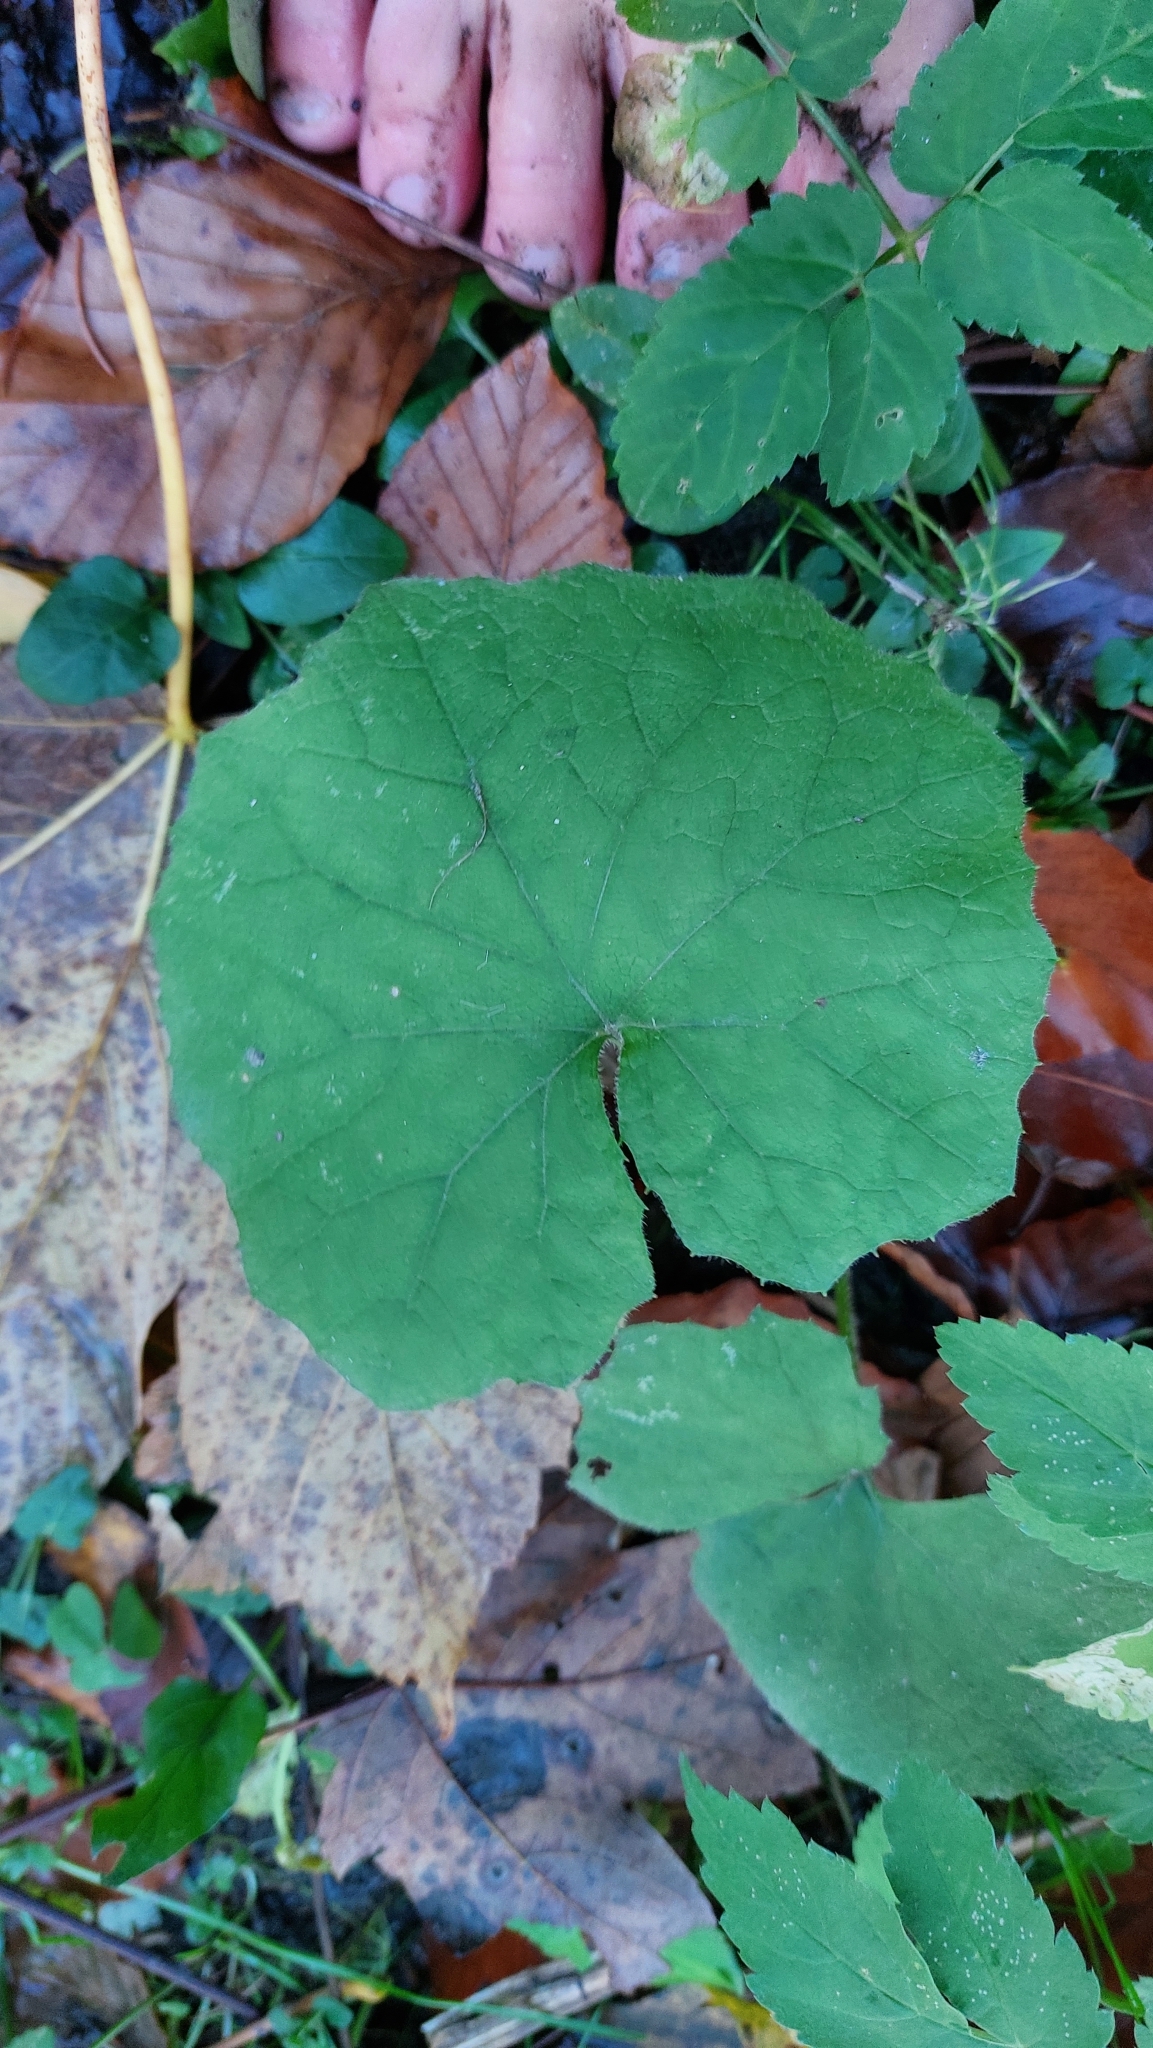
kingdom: Plantae
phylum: Tracheophyta
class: Magnoliopsida
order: Asterales
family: Asteraceae
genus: Tussilago
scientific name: Tussilago farfara
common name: Coltsfoot
